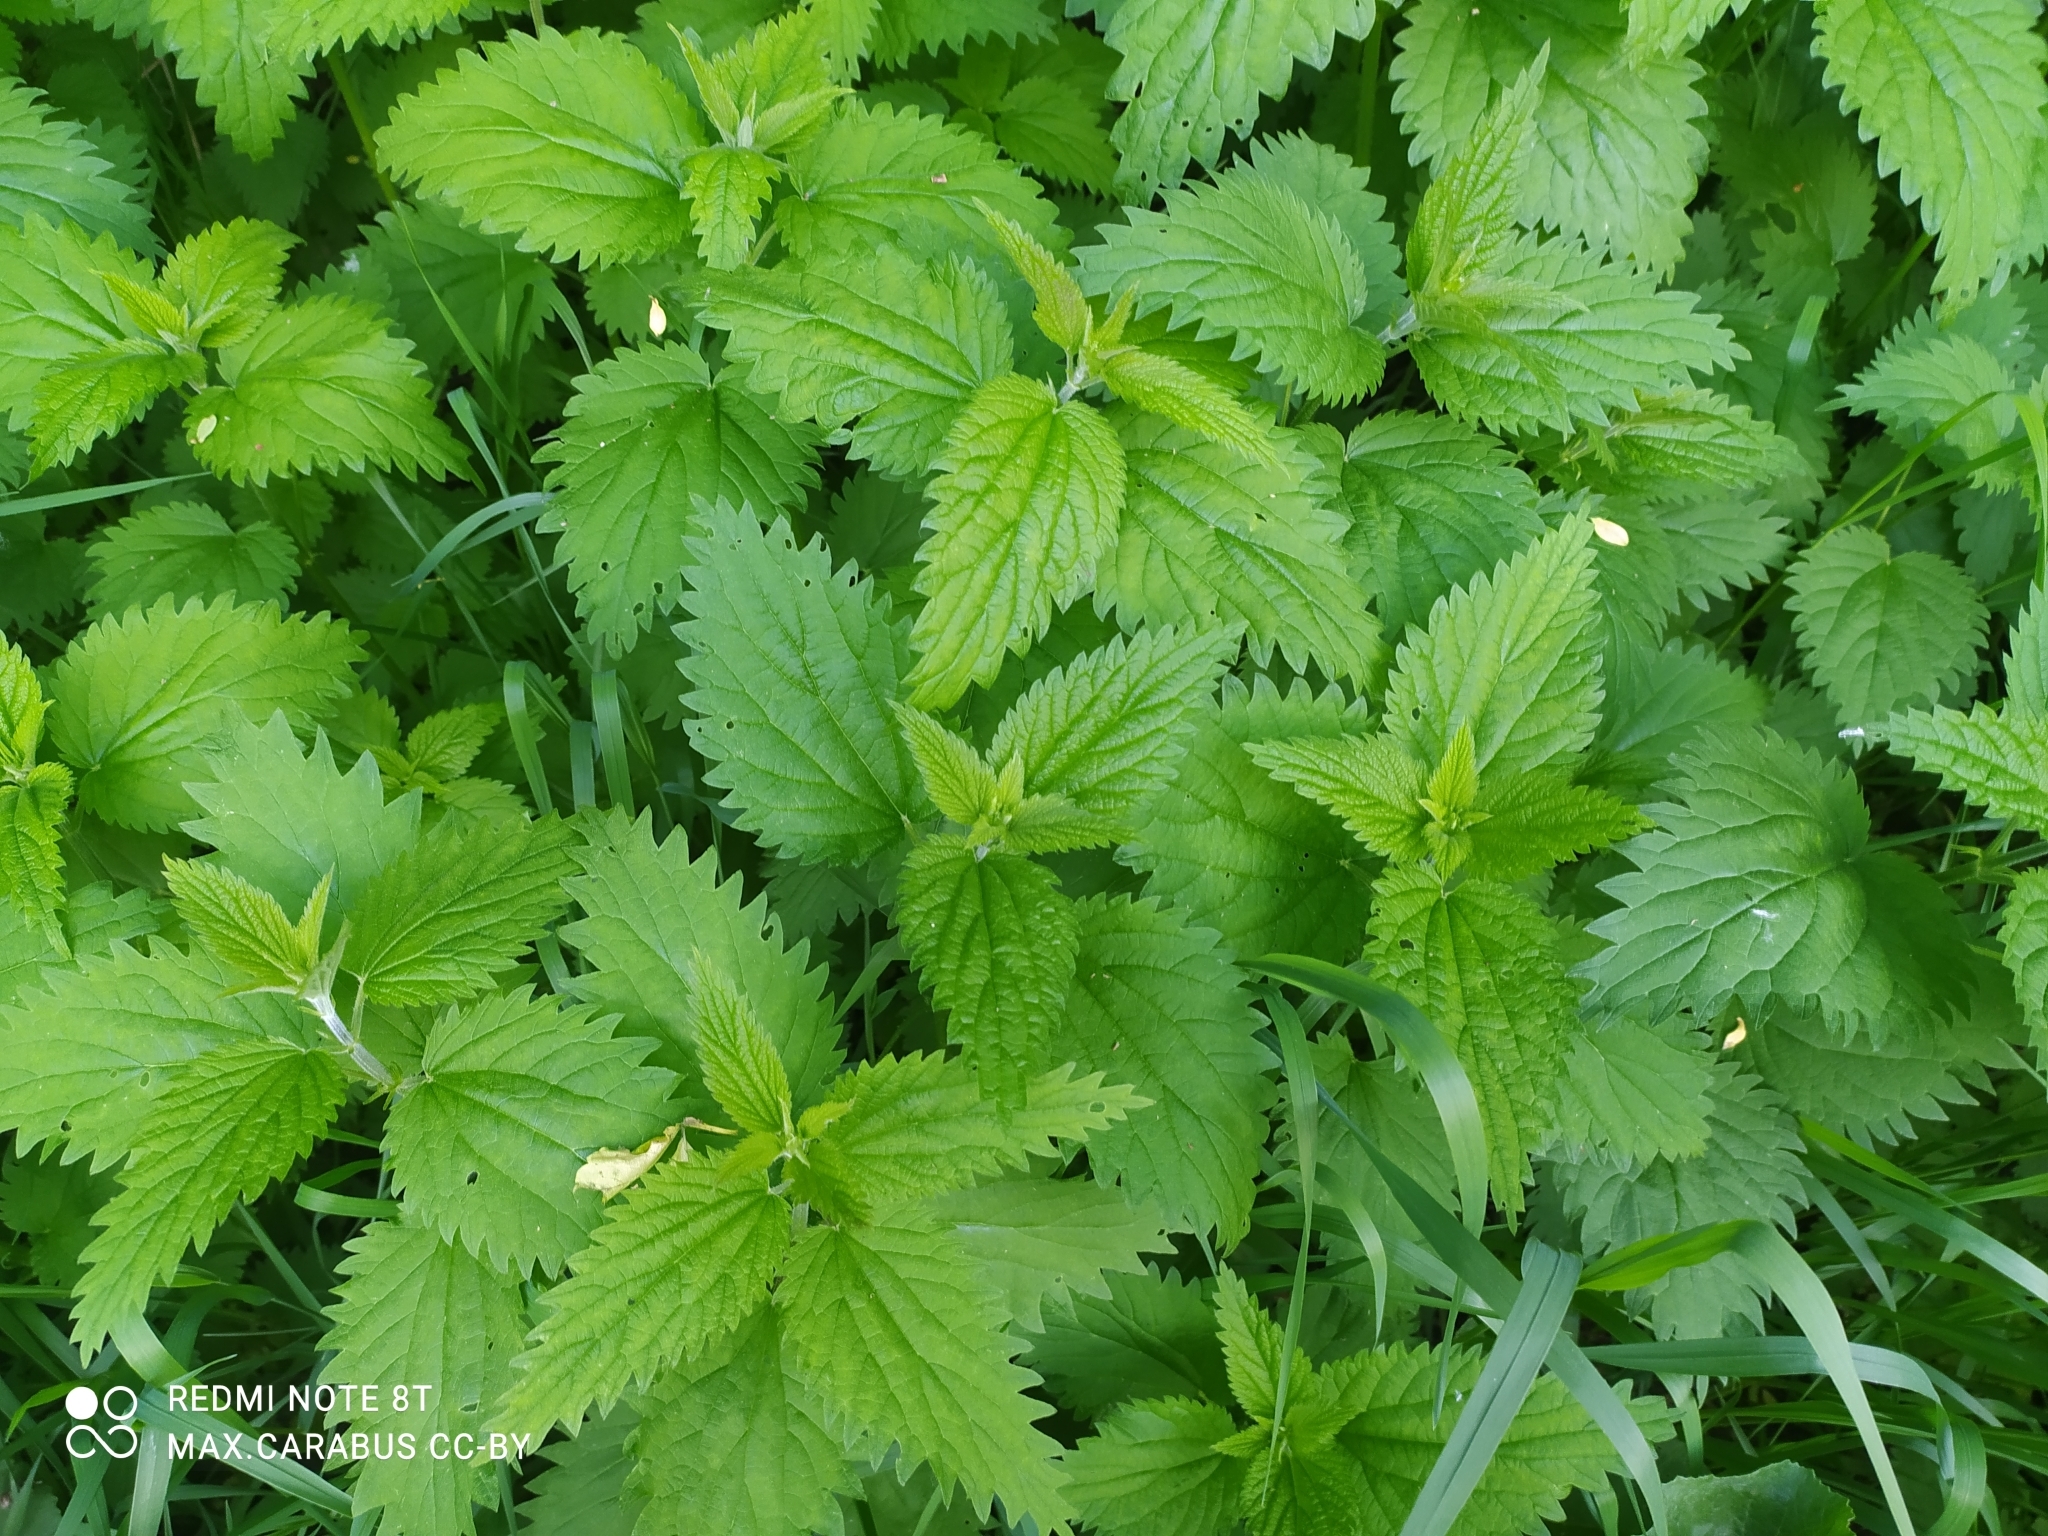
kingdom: Plantae
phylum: Tracheophyta
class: Magnoliopsida
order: Rosales
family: Urticaceae
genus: Urtica
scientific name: Urtica dioica
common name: Common nettle
